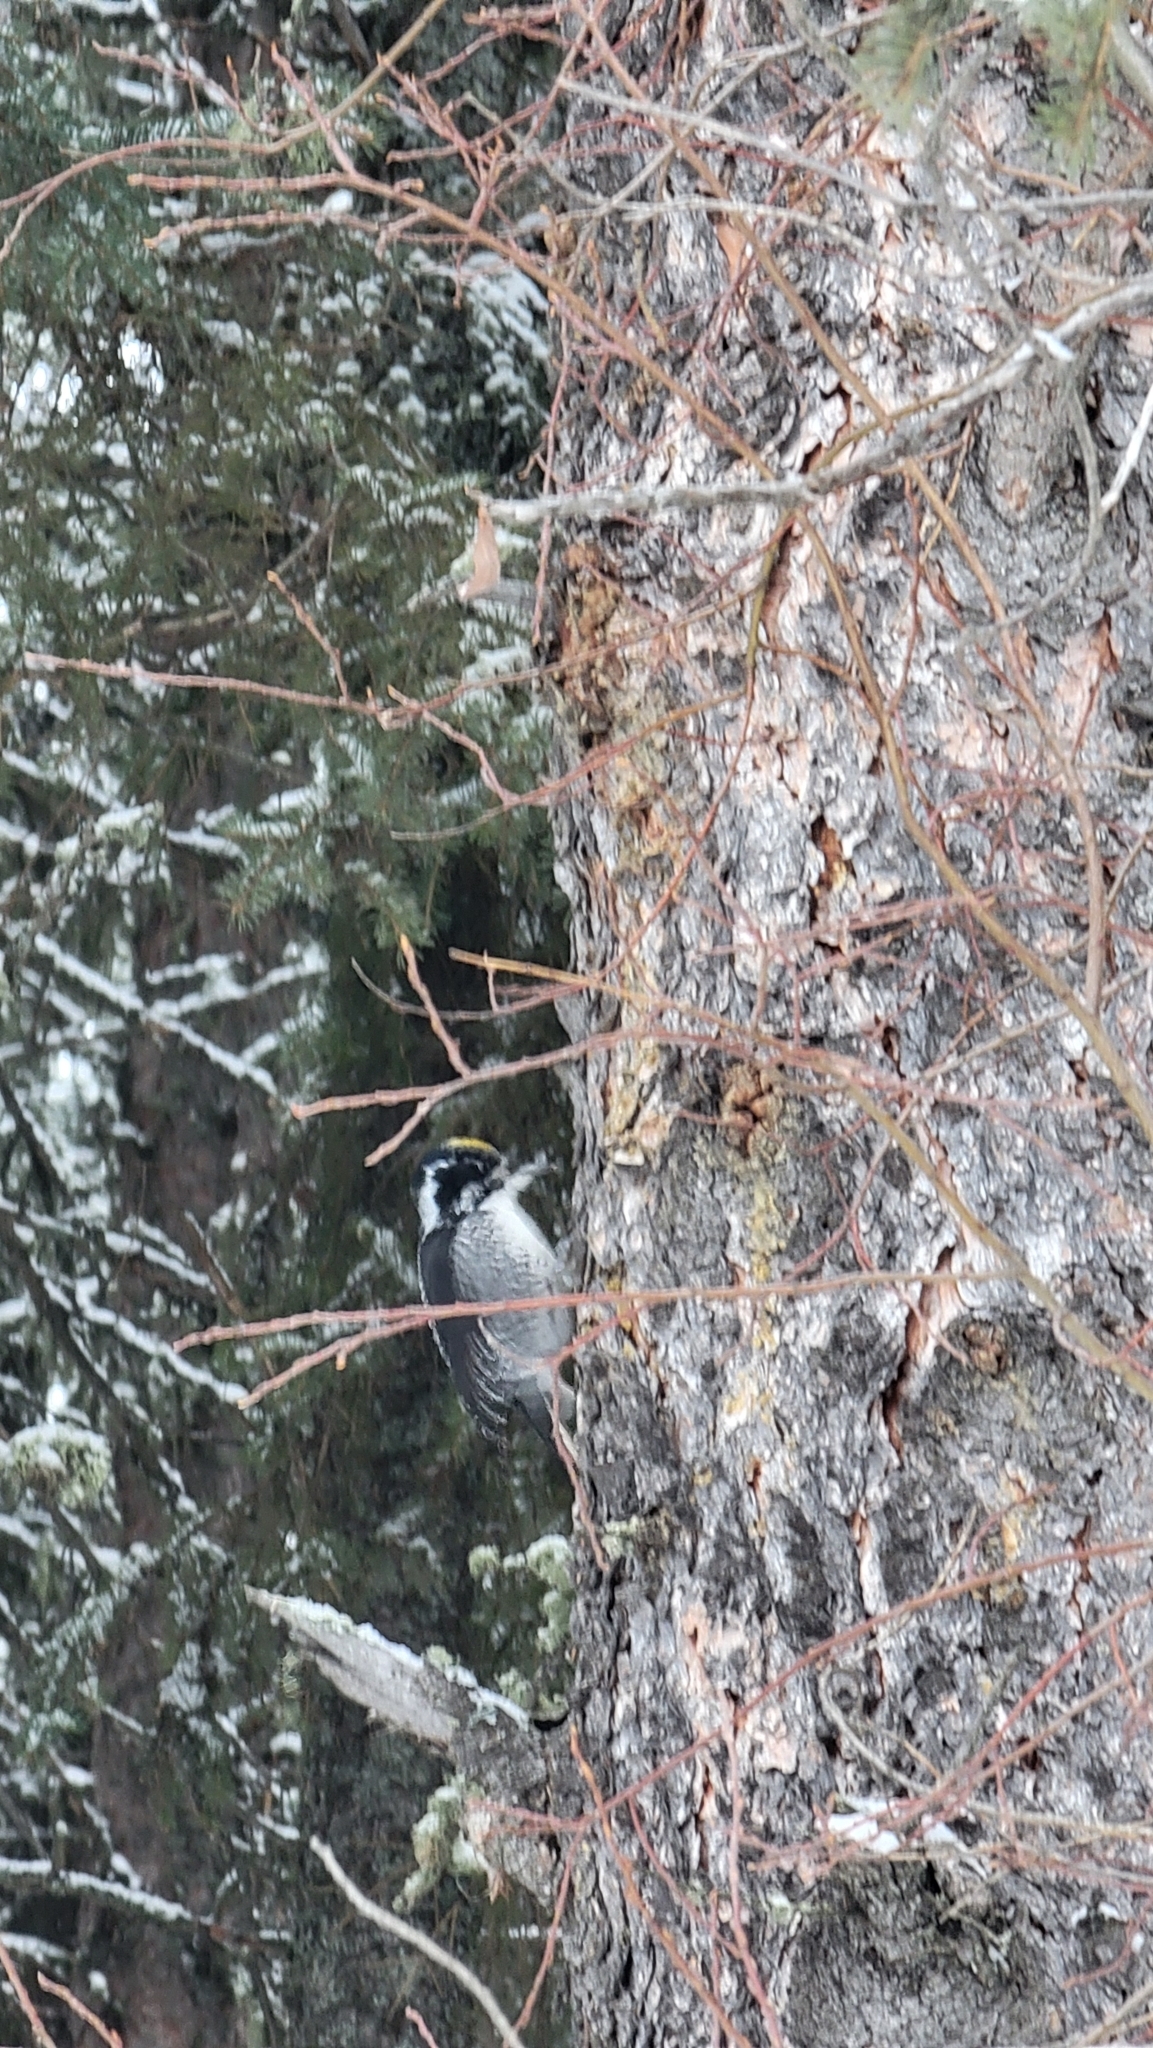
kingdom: Animalia
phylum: Chordata
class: Aves
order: Piciformes
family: Picidae
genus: Picoides
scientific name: Picoides dorsalis
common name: American three-toed woodpecker
